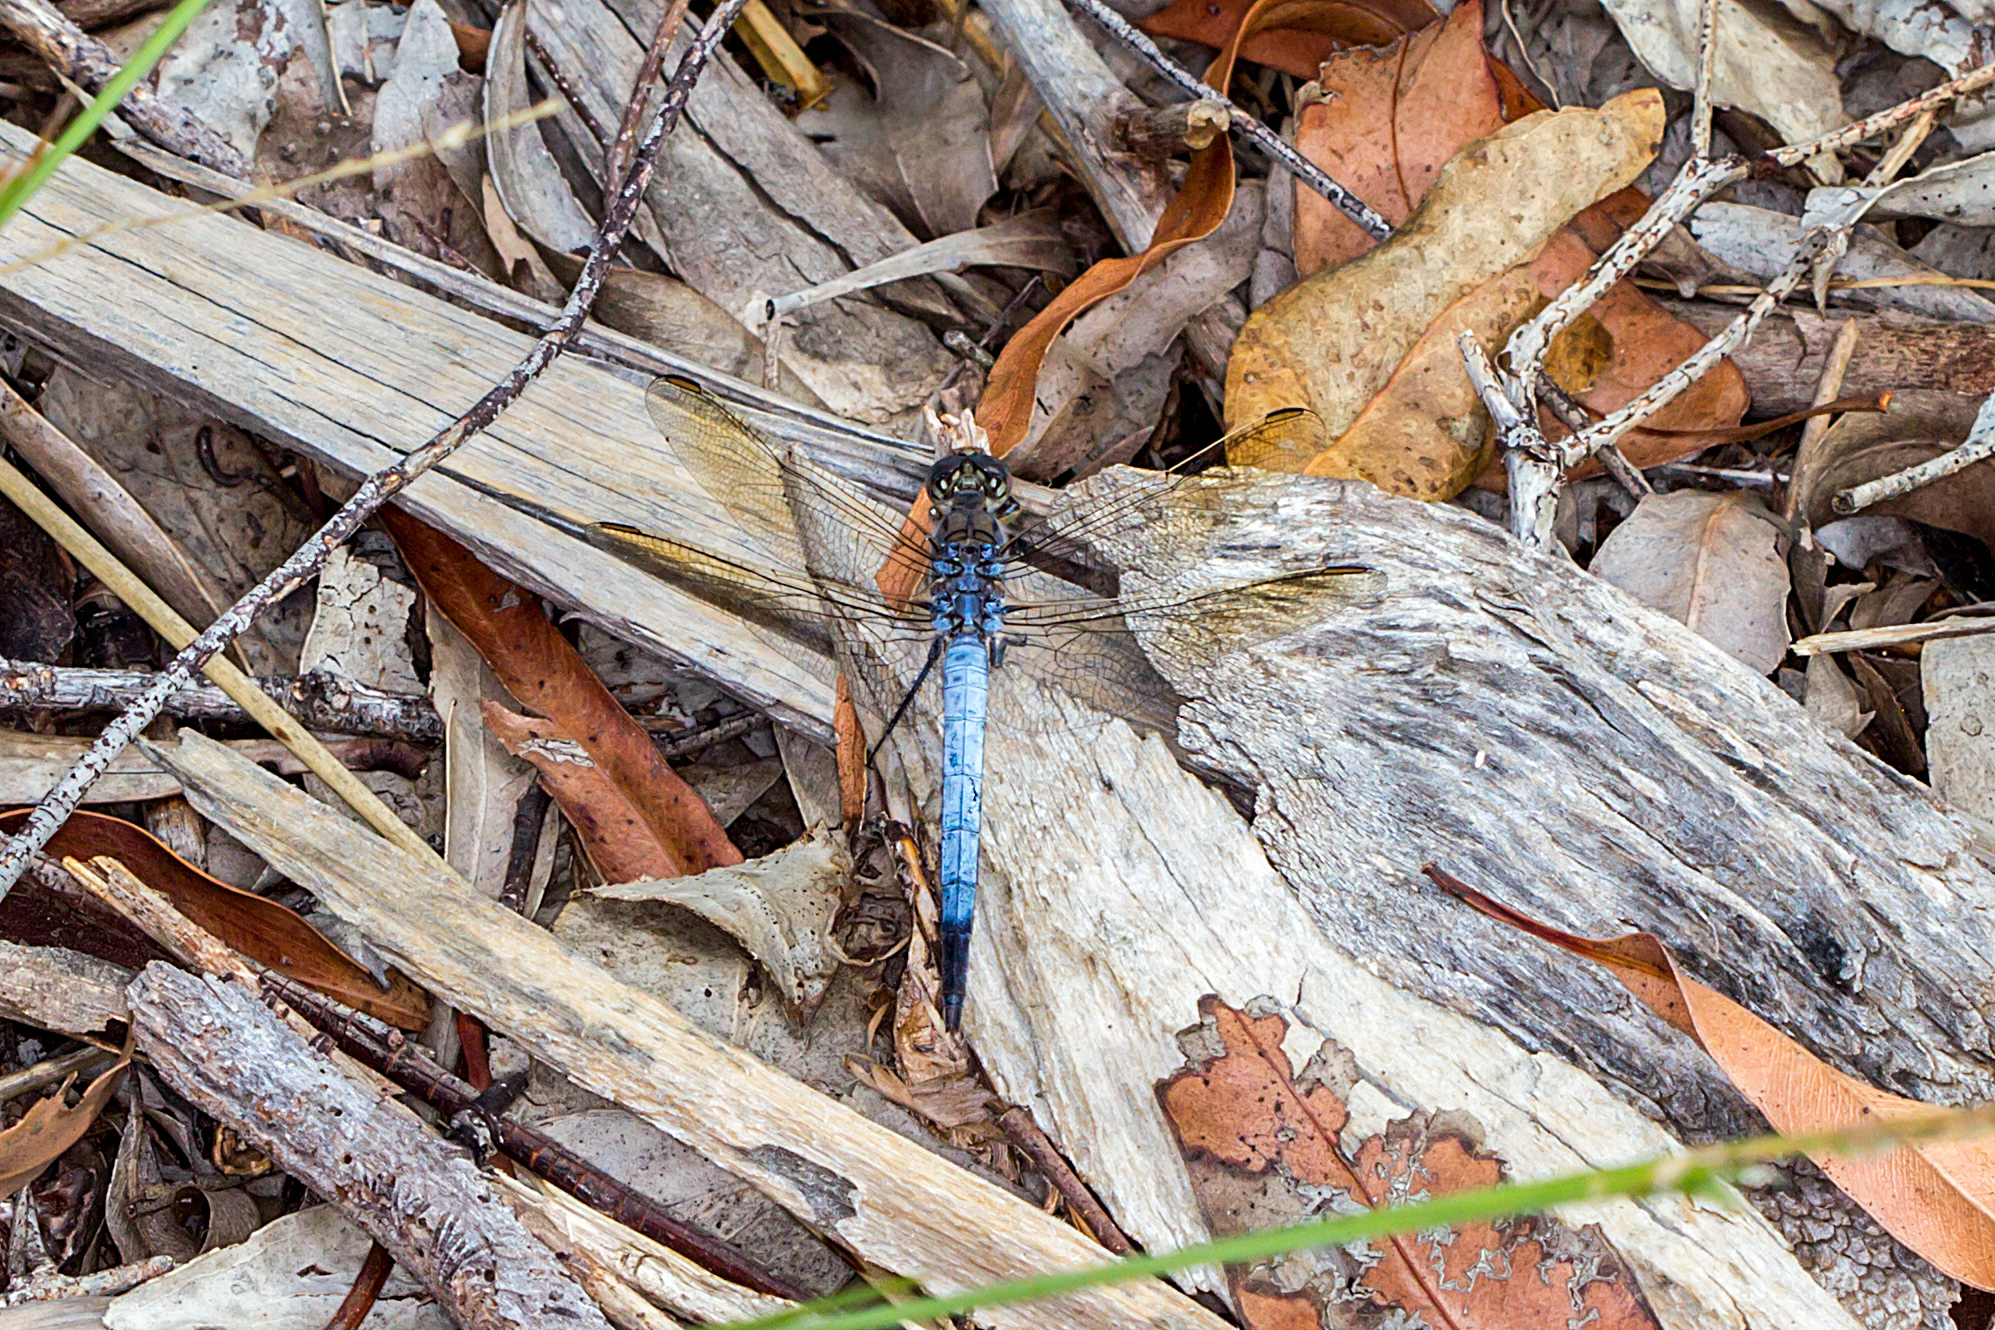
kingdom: Animalia
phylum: Arthropoda
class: Insecta
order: Odonata
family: Libellulidae
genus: Orthetrum
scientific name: Orthetrum caledonicum
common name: Blue skimmer
